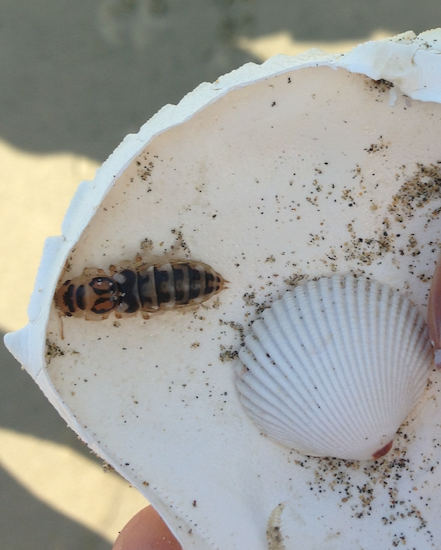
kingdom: Animalia
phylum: Arthropoda
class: Insecta
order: Coleoptera
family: Staphylinidae
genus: Thinopinus
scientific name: Thinopinus pictus
